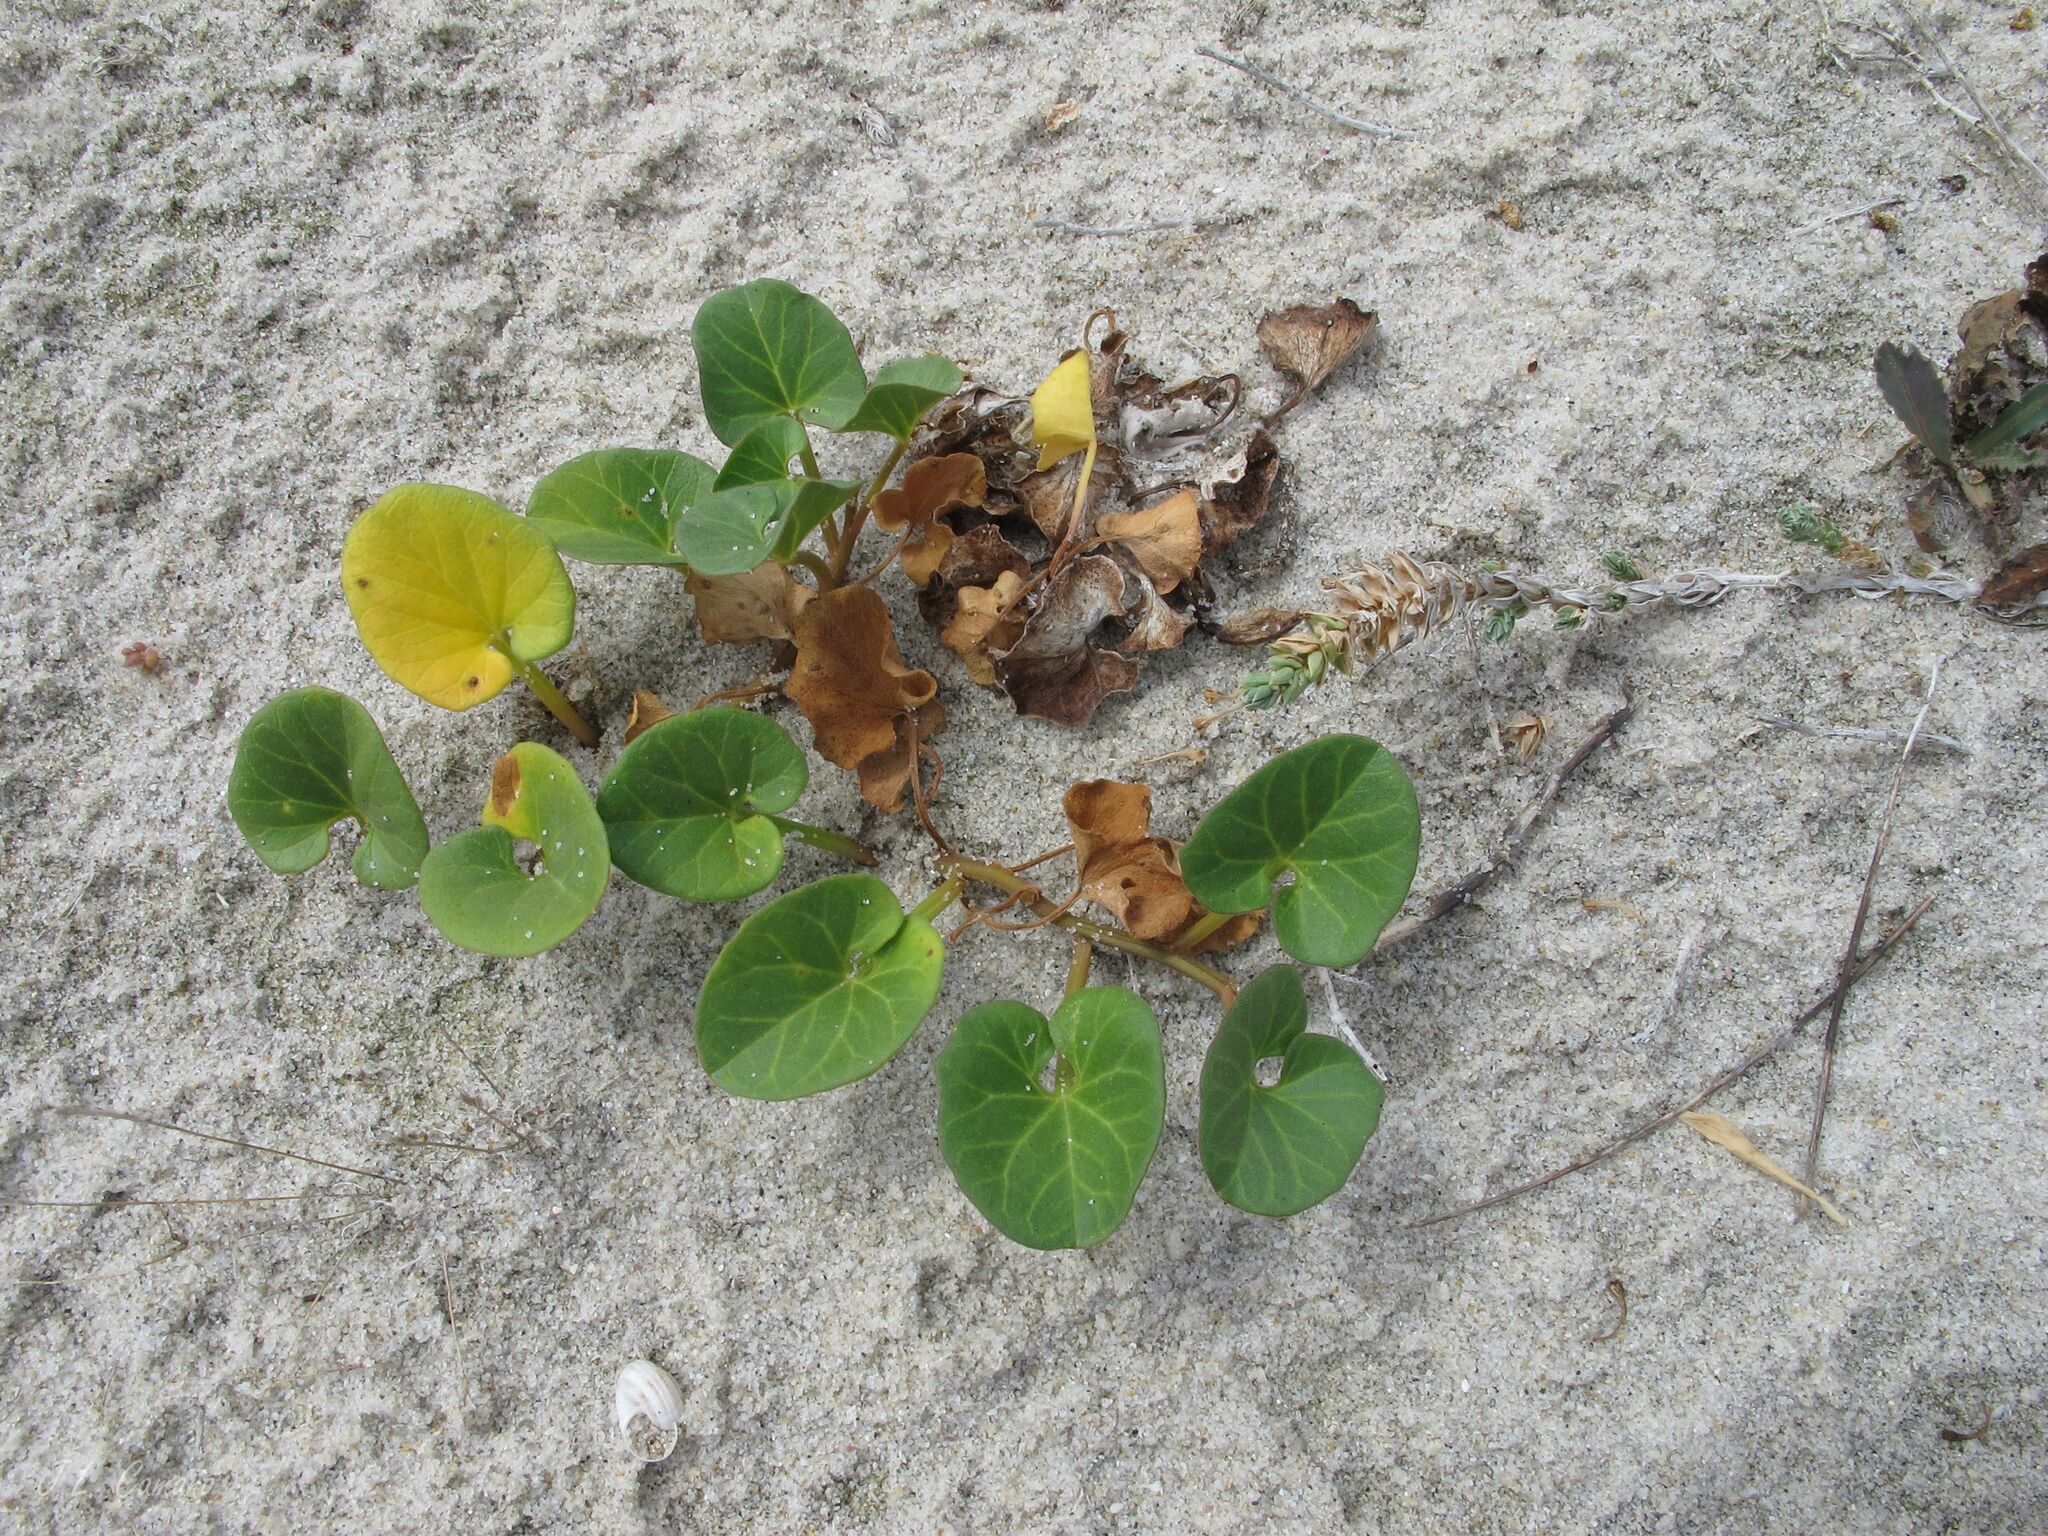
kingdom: Plantae
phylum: Tracheophyta
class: Magnoliopsida
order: Solanales
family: Convolvulaceae
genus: Calystegia
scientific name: Calystegia soldanella
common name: Sea bindweed
